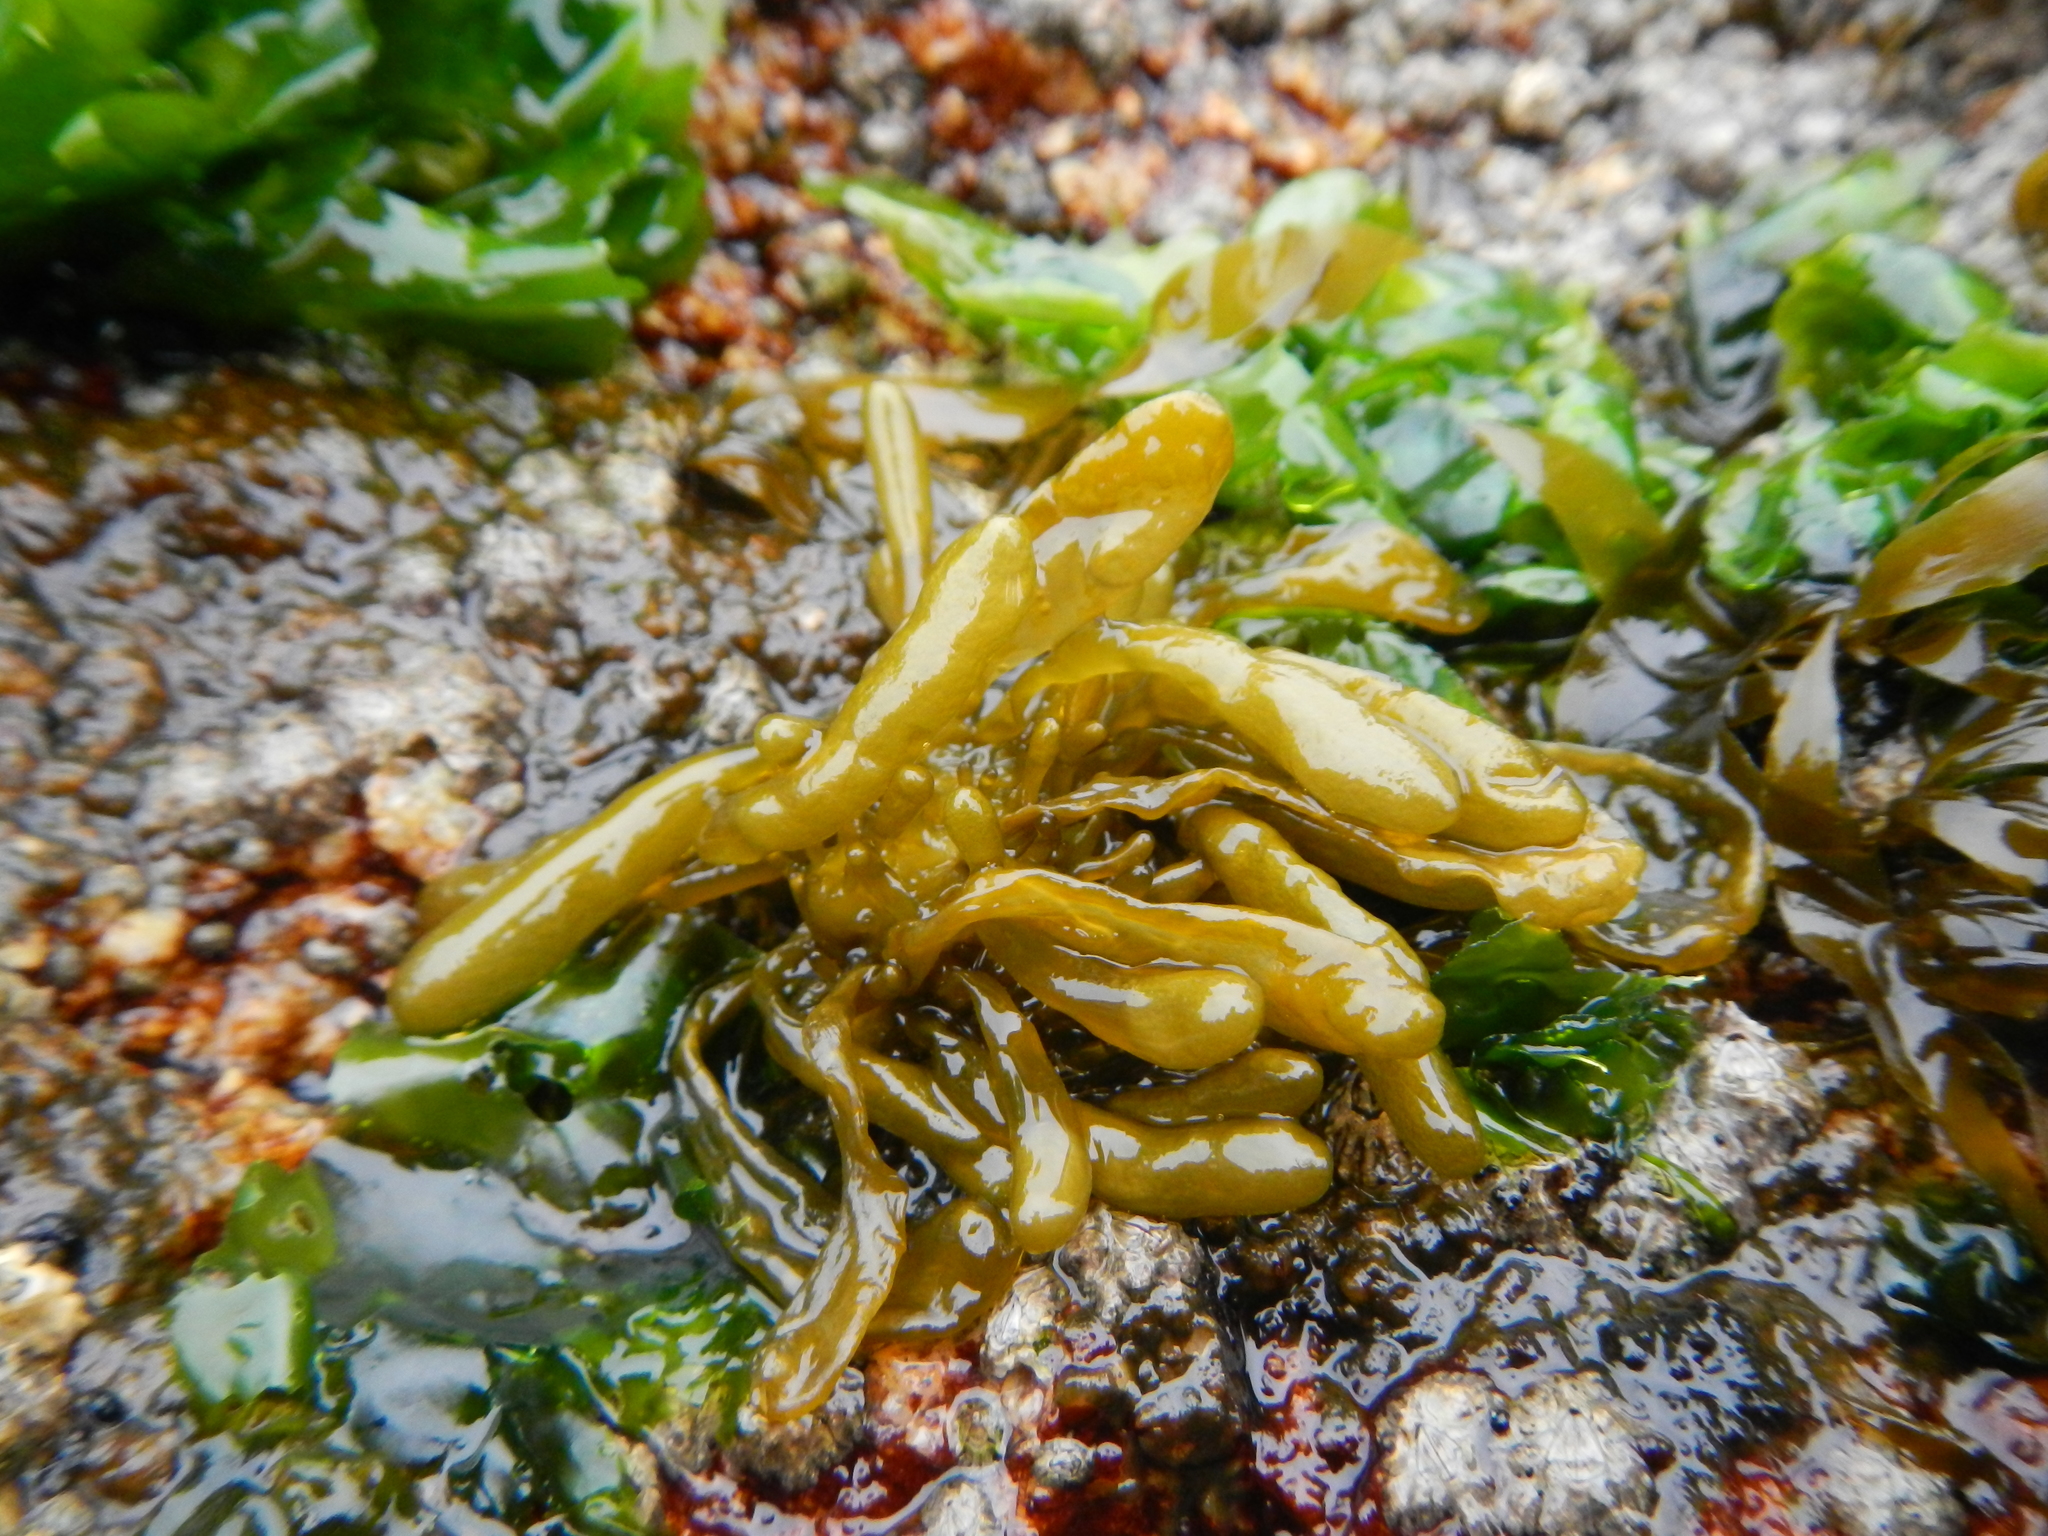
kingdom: Chromista
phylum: Ochrophyta
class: Phaeophyceae
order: Scytosiphonales
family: Scytosiphonaceae
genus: Dactylosiphon
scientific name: Dactylosiphon
